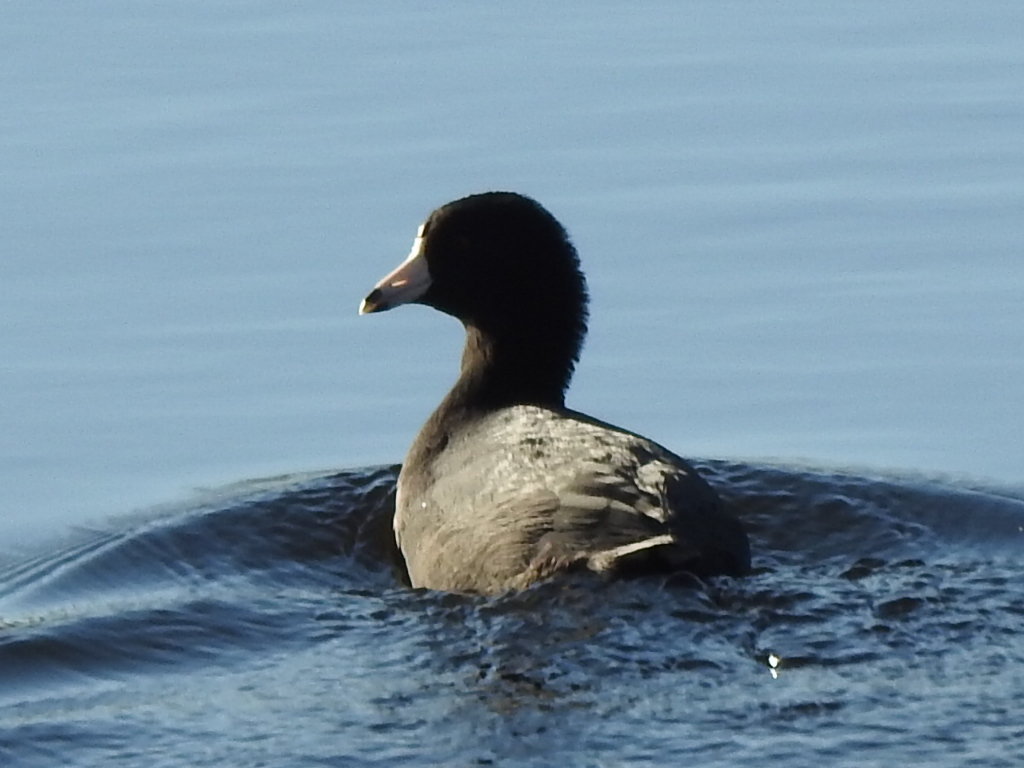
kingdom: Animalia
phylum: Chordata
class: Aves
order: Gruiformes
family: Rallidae
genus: Fulica
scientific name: Fulica americana
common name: American coot
